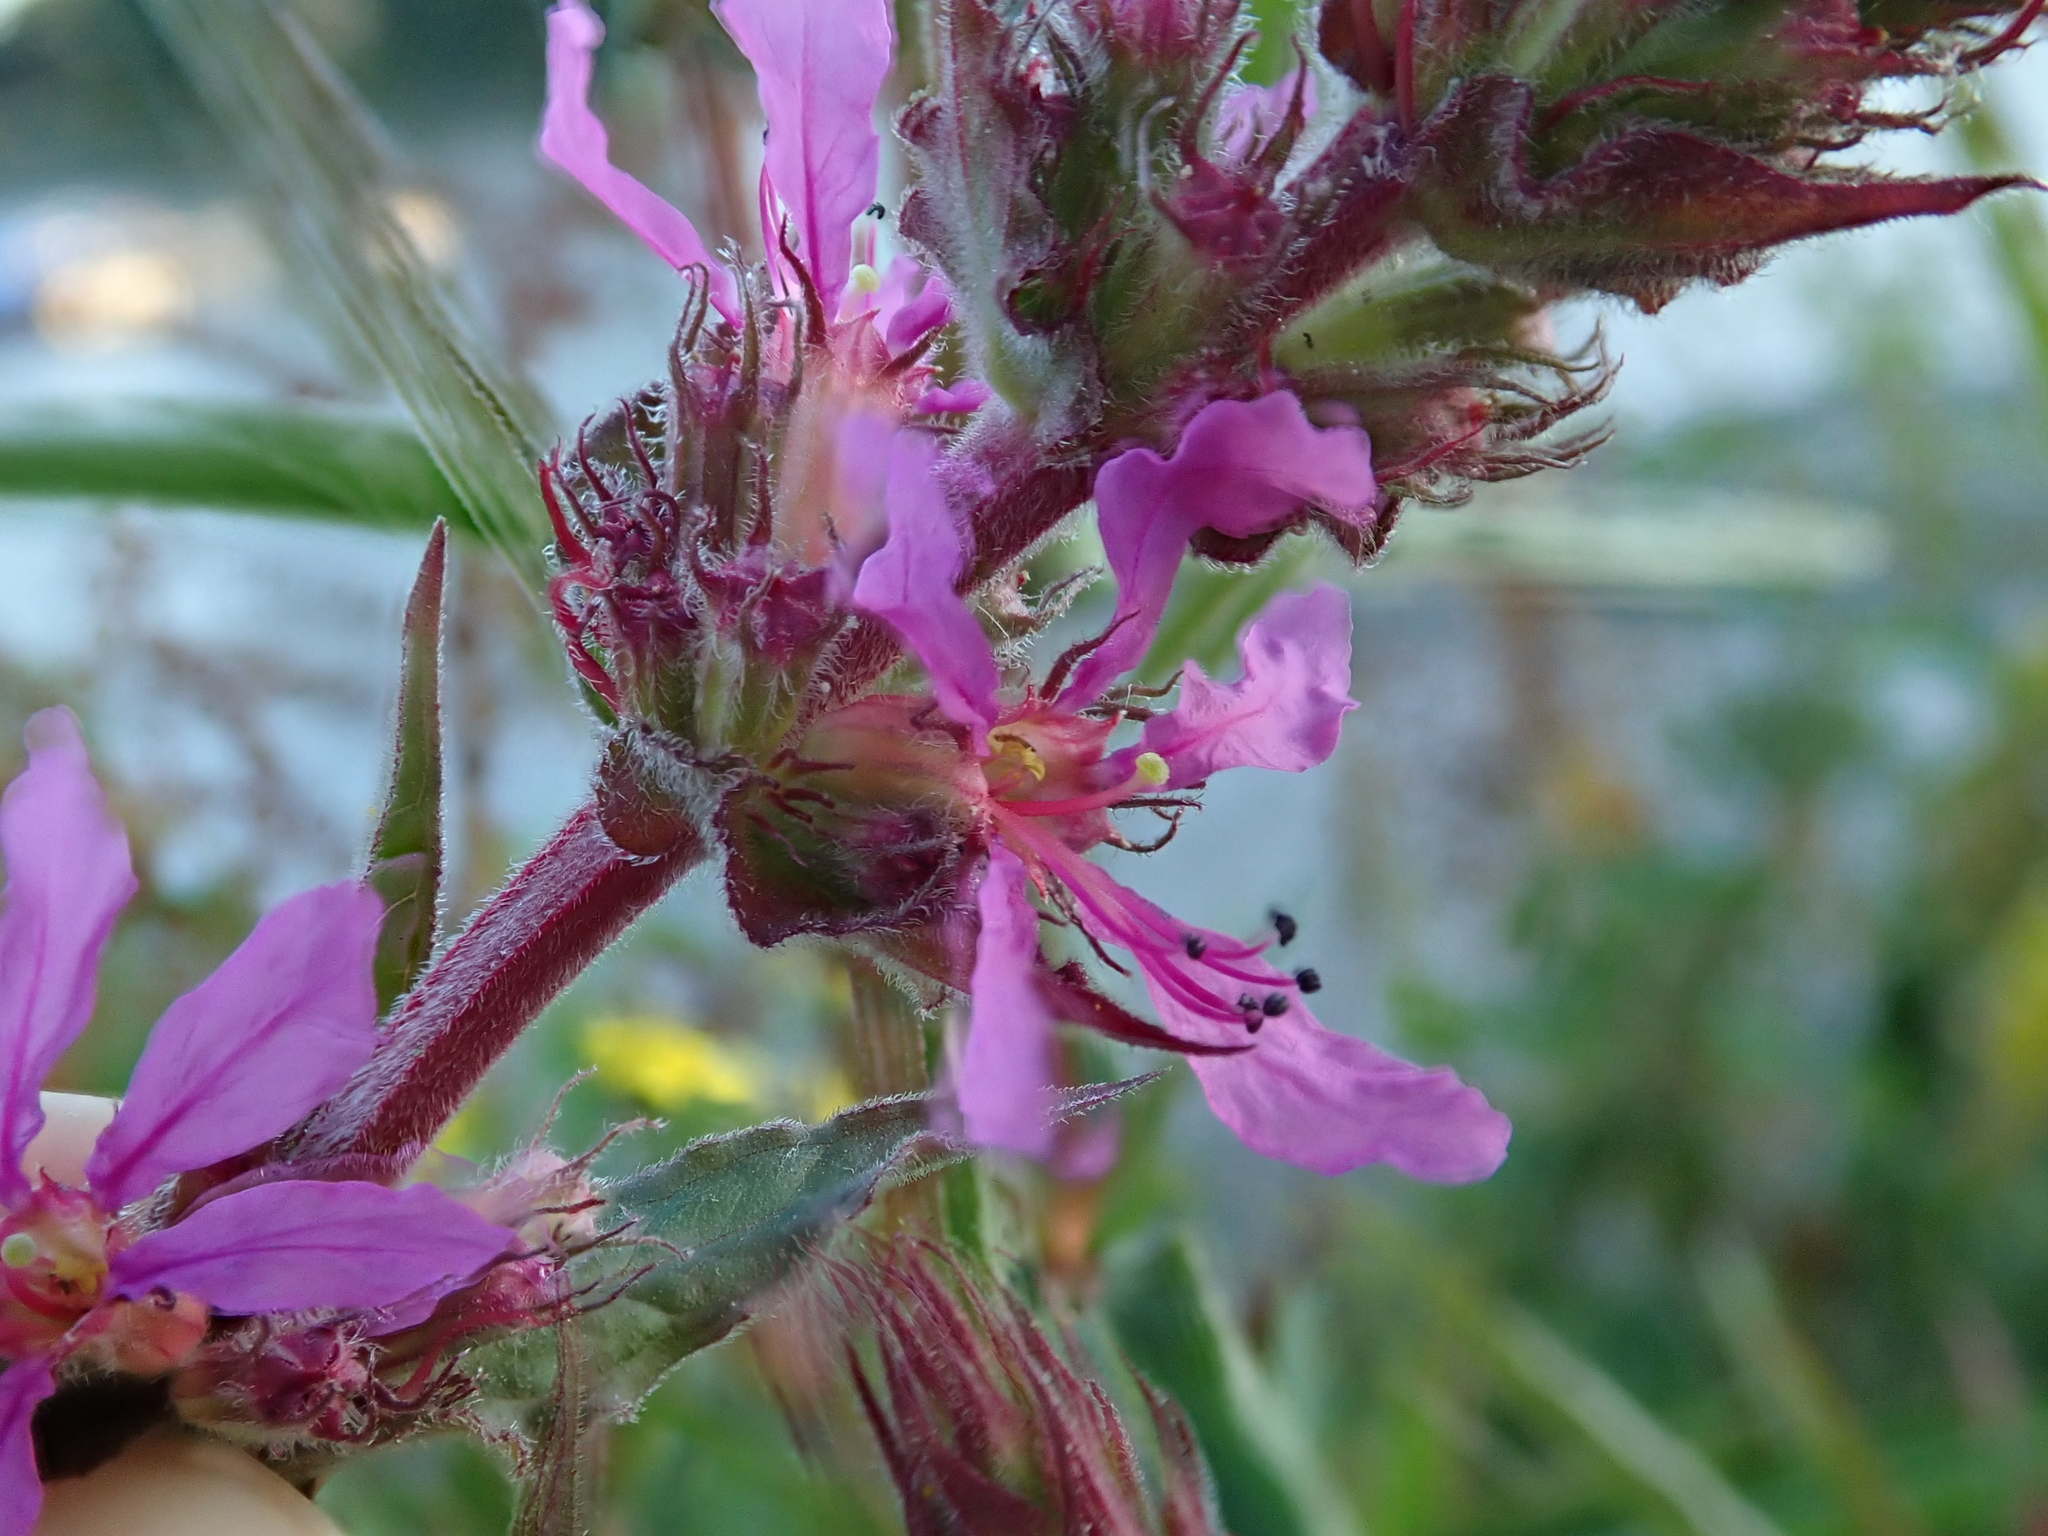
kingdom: Plantae
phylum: Tracheophyta
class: Magnoliopsida
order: Myrtales
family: Lythraceae
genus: Lythrum
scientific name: Lythrum salicaria
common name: Purple loosestrife
